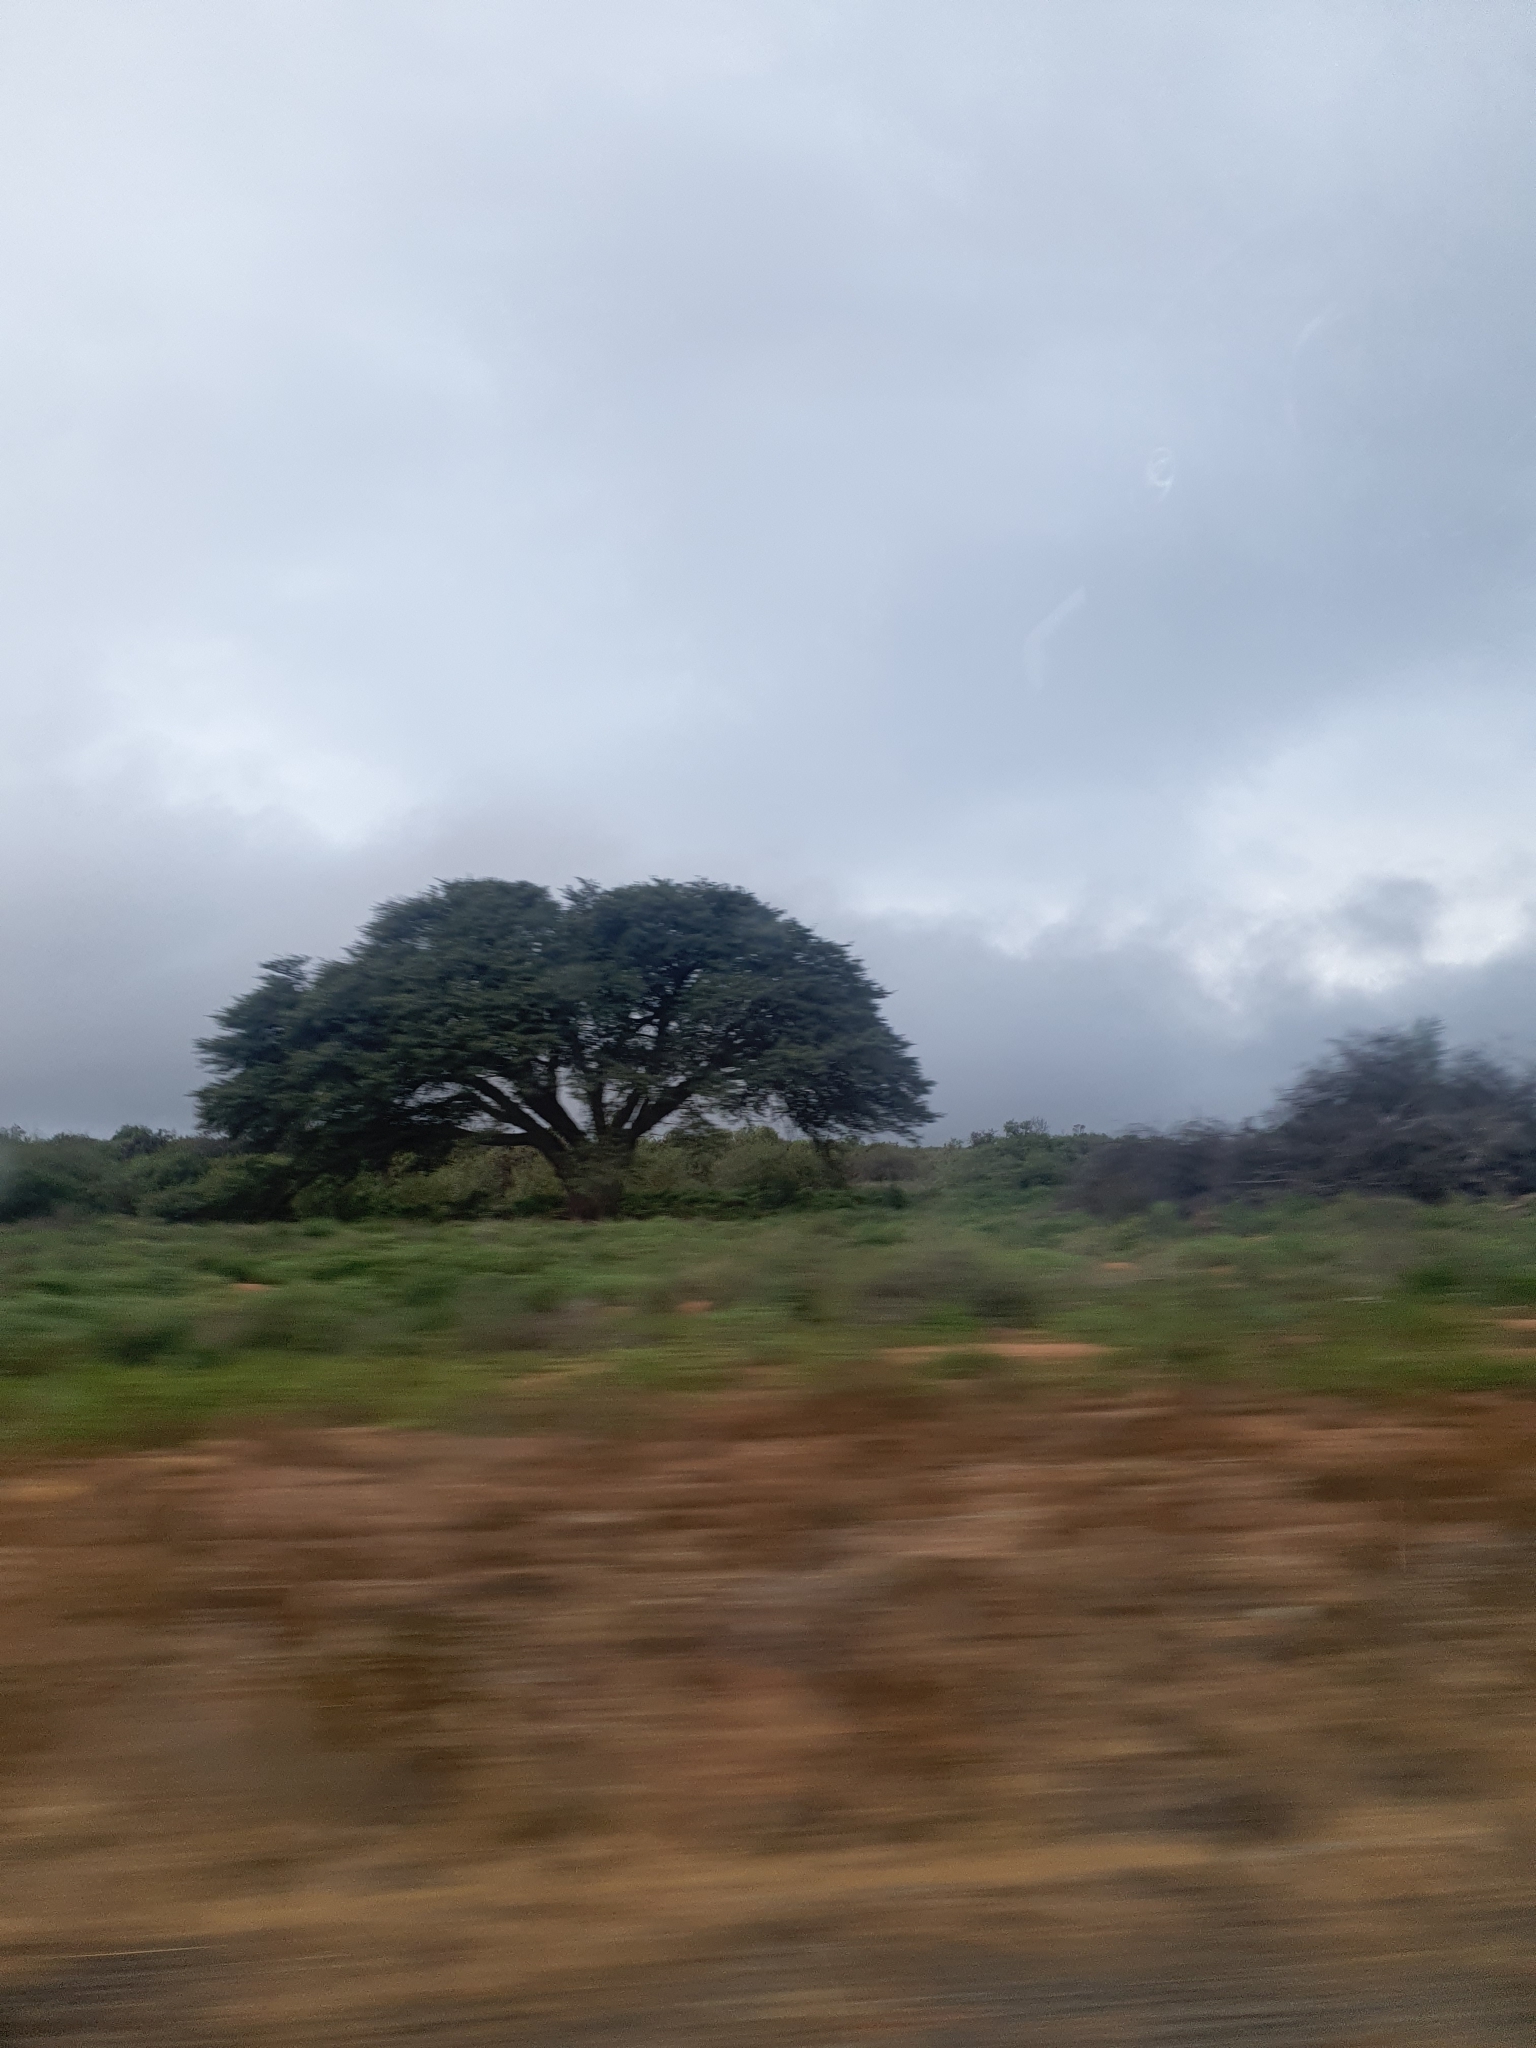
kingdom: Plantae
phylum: Tracheophyta
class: Magnoliopsida
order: Fabales
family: Fabaceae
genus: Vachellia
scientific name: Vachellia erioloba
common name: Camel thorn
